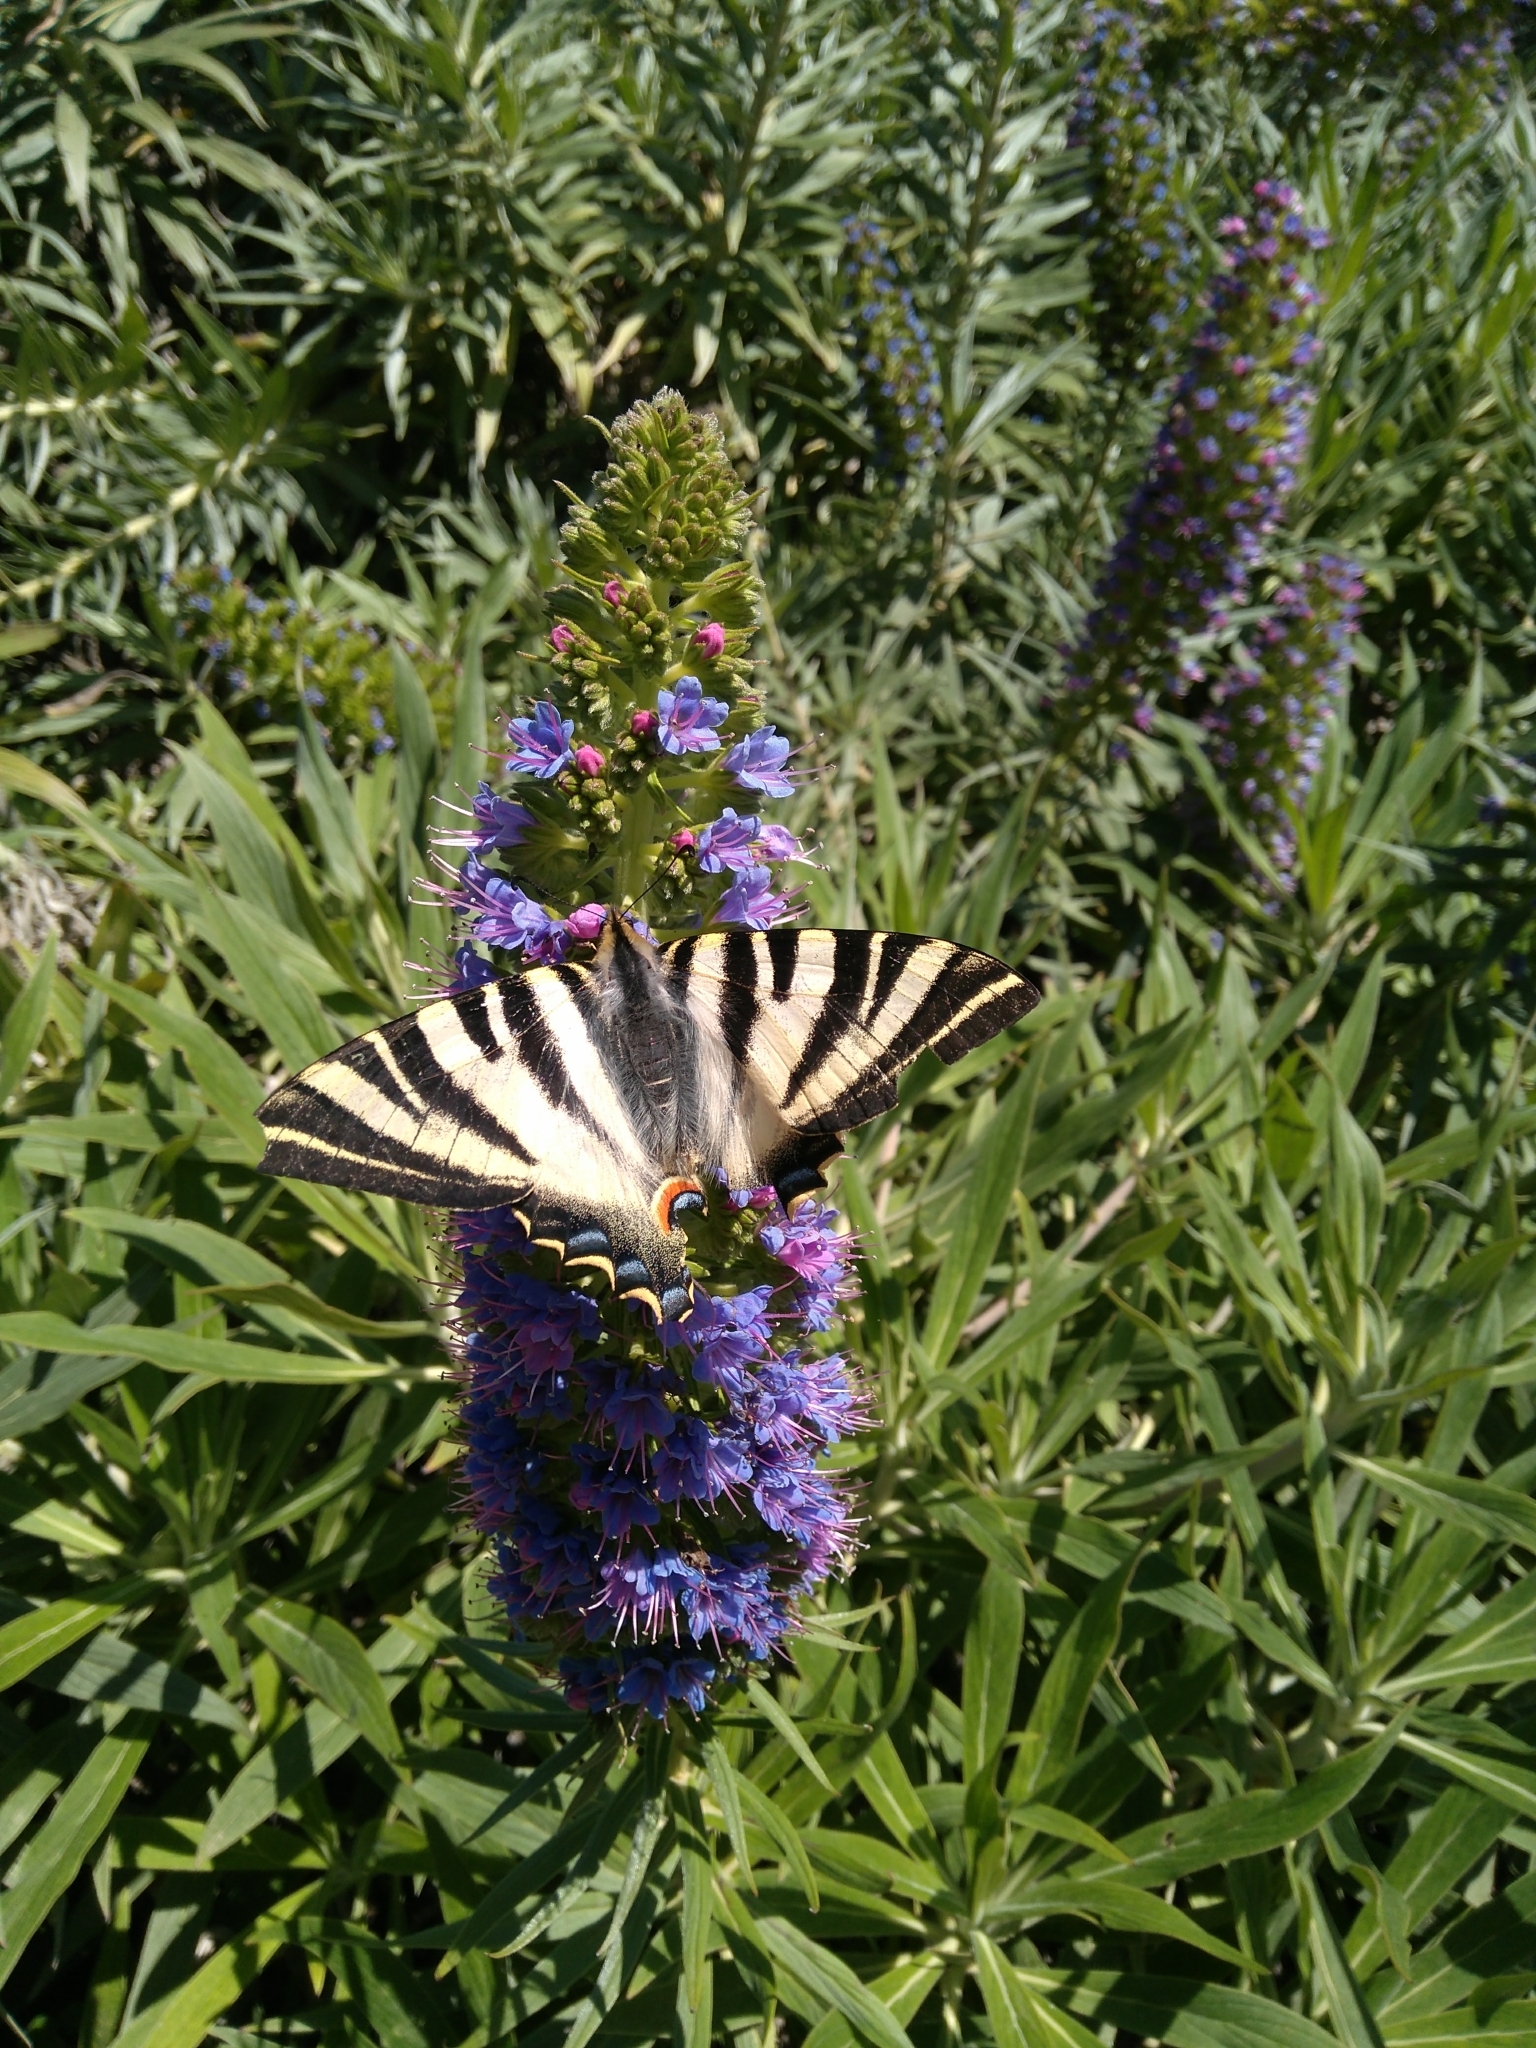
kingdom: Animalia
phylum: Arthropoda
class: Insecta
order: Lepidoptera
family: Papilionidae
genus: Iphiclides
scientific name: Iphiclides feisthamelii
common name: Iberian scarce swallowtail
